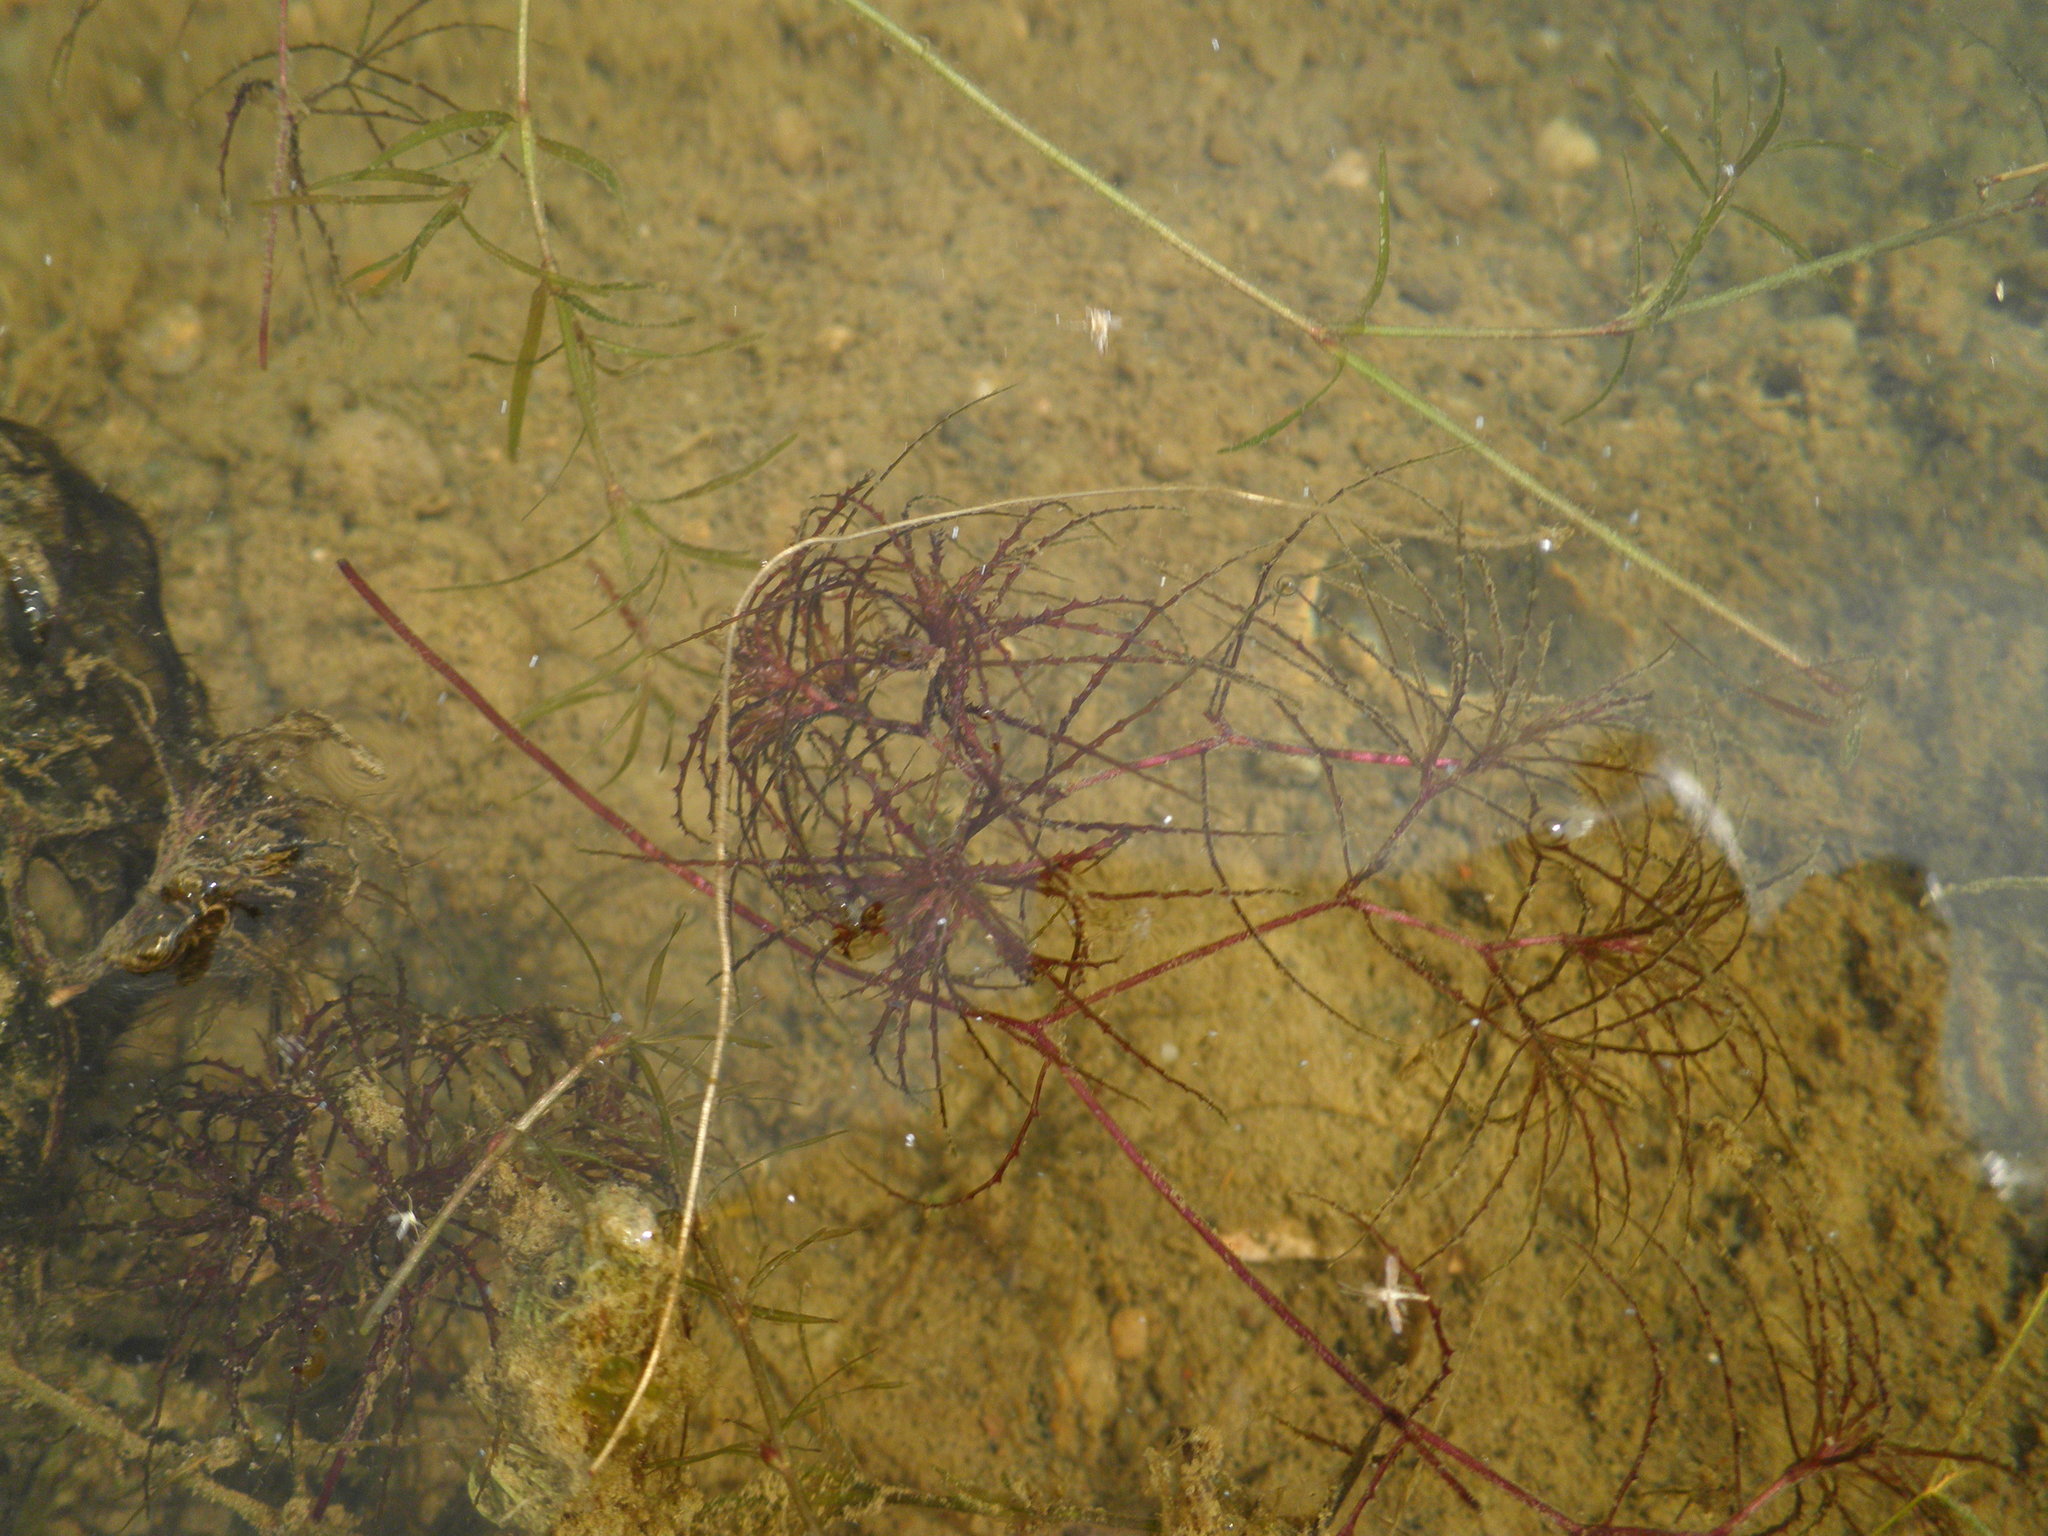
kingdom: Plantae
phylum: Tracheophyta
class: Liliopsida
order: Alismatales
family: Hydrocharitaceae
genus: Najas
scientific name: Najas minor
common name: Brittle naiad
